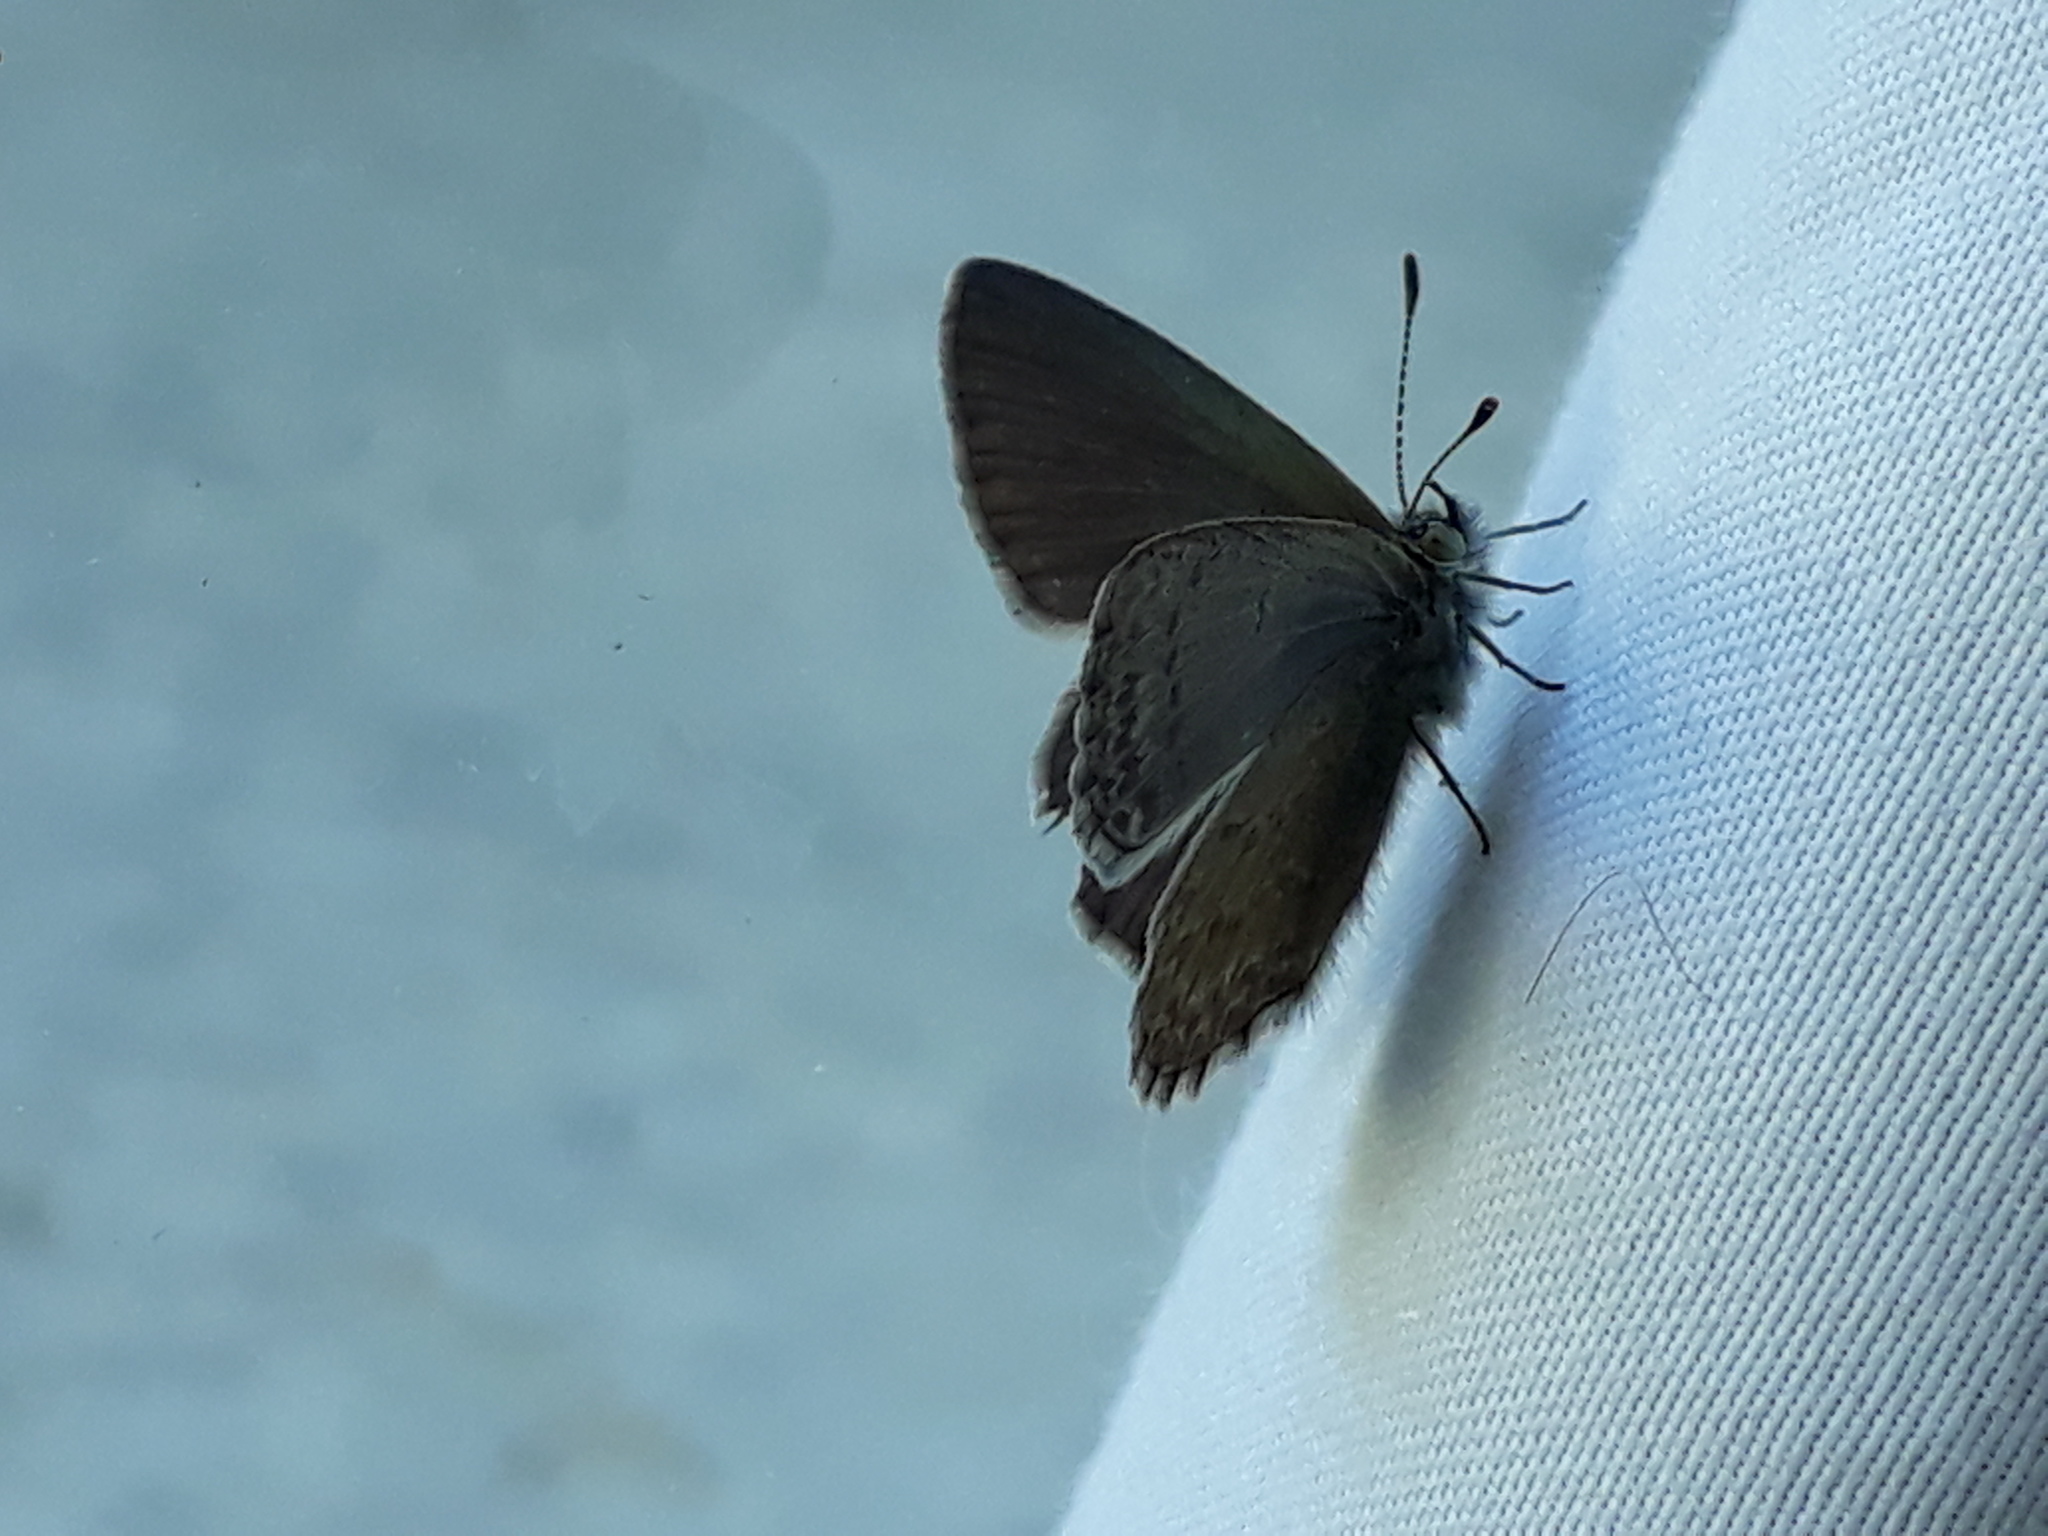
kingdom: Animalia
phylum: Arthropoda
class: Insecta
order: Lepidoptera
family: Lycaenidae
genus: Zizina
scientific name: Zizina labradus
